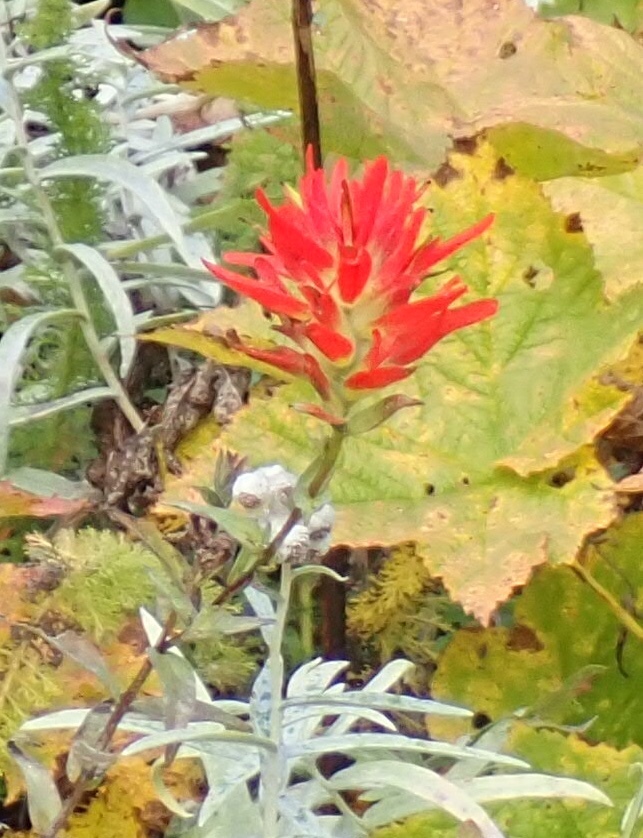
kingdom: Plantae
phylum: Tracheophyta
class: Magnoliopsida
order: Lamiales
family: Orobanchaceae
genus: Castilleja
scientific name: Castilleja miniata
